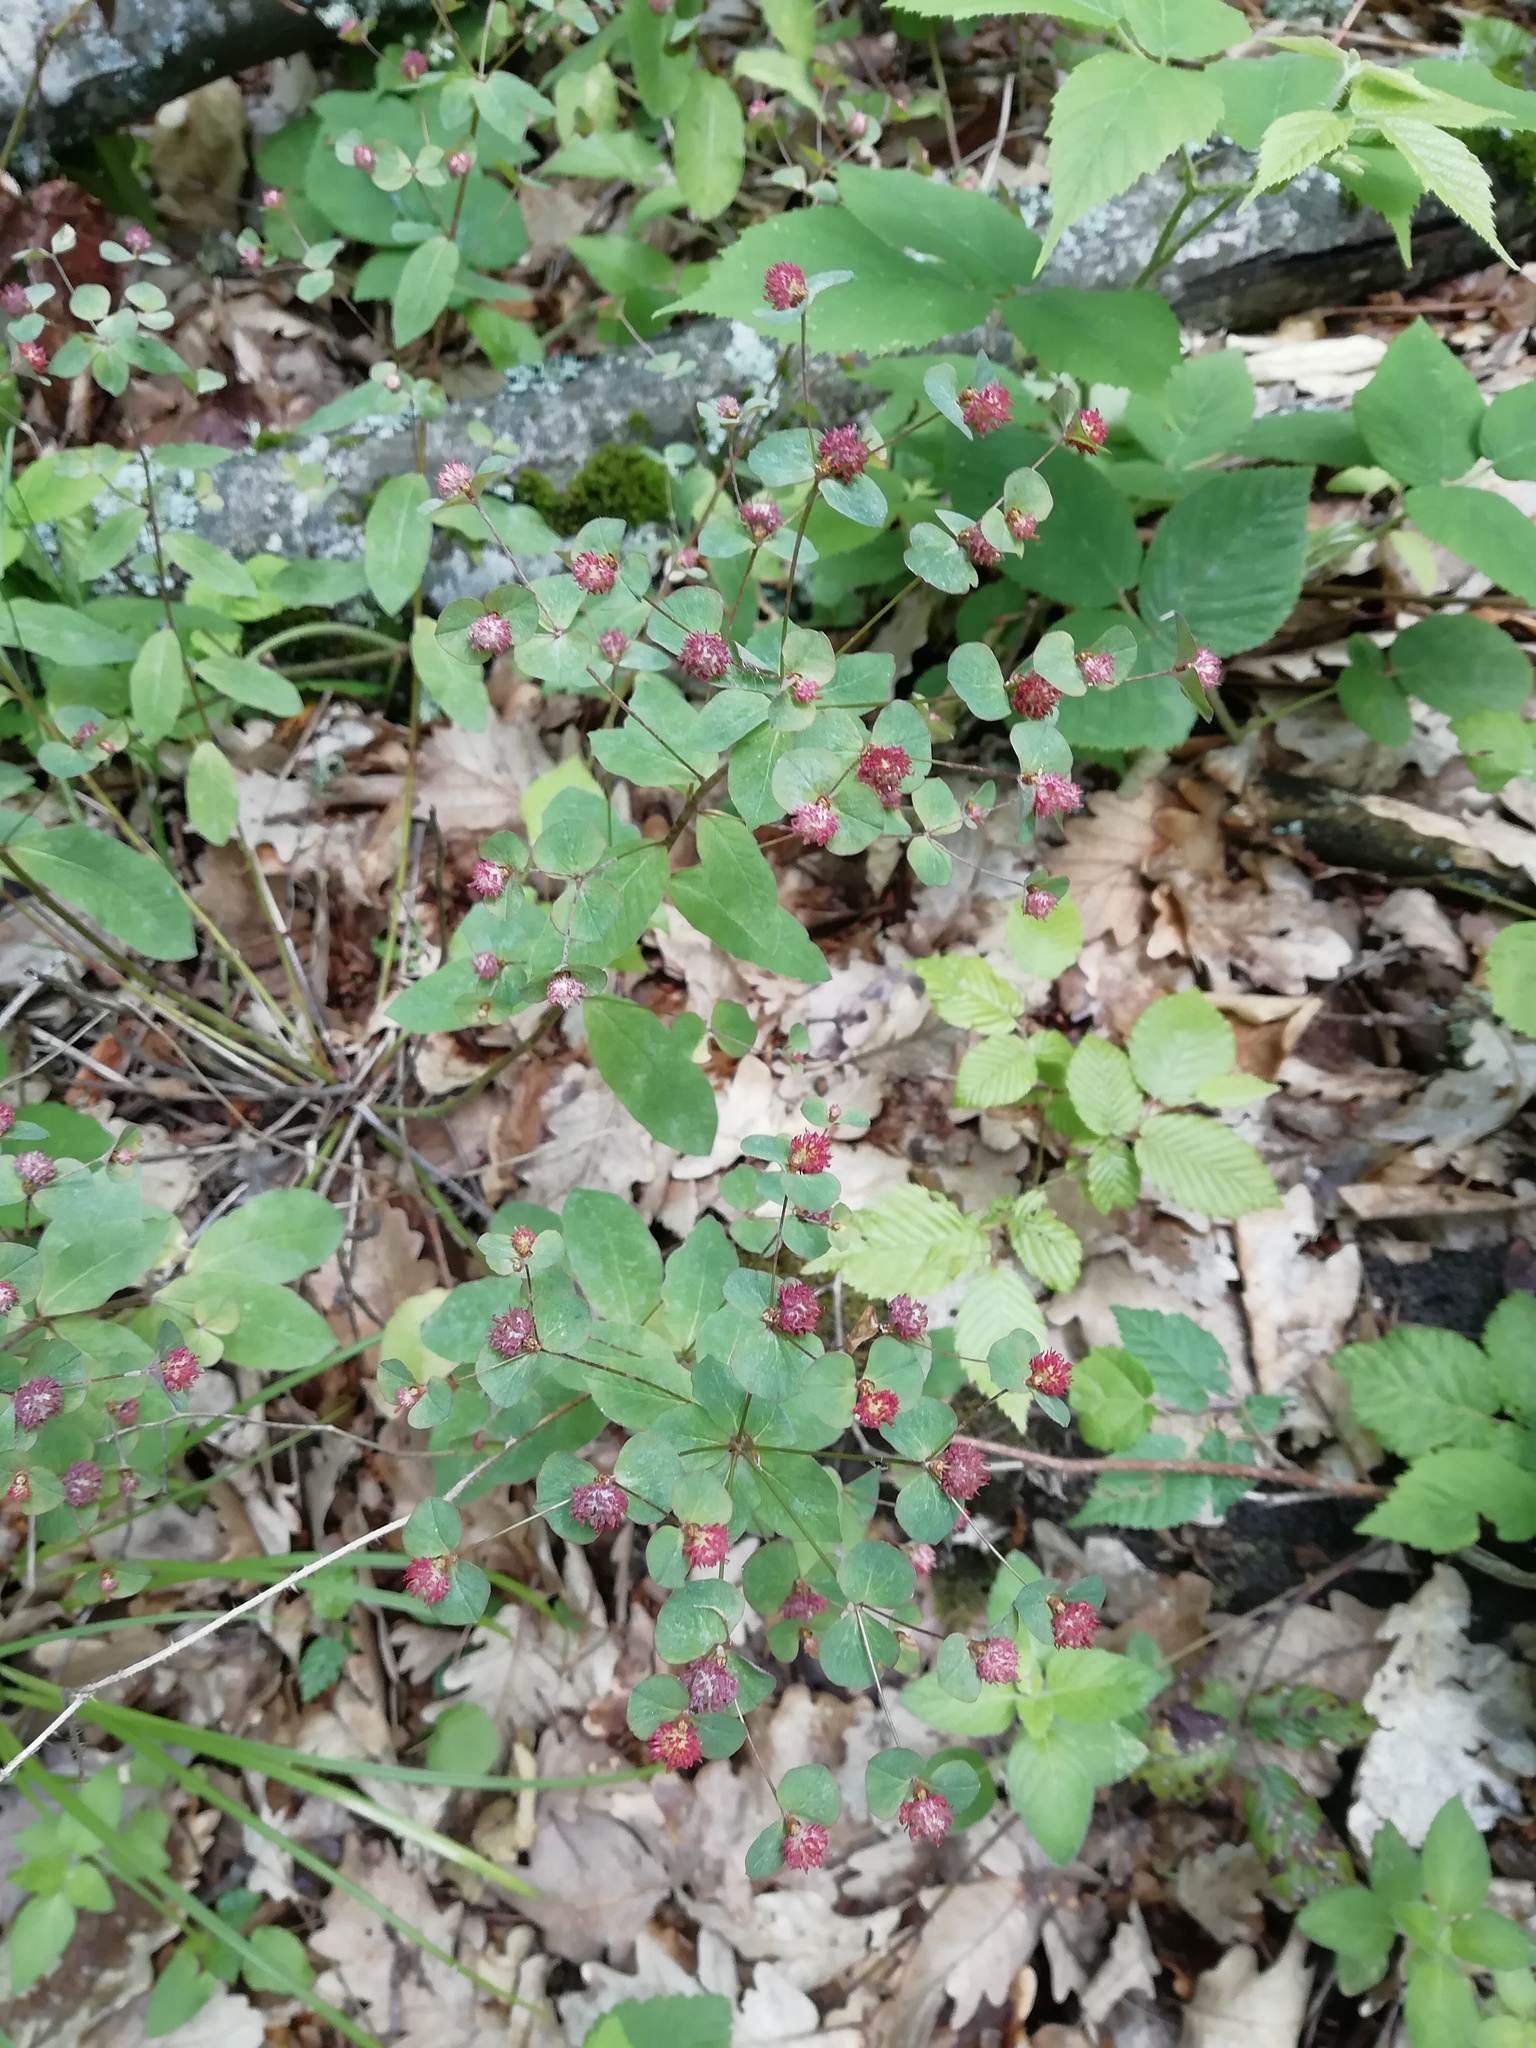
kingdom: Plantae
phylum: Tracheophyta
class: Magnoliopsida
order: Malpighiales
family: Euphorbiaceae
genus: Euphorbia
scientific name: Euphorbia squamosa
